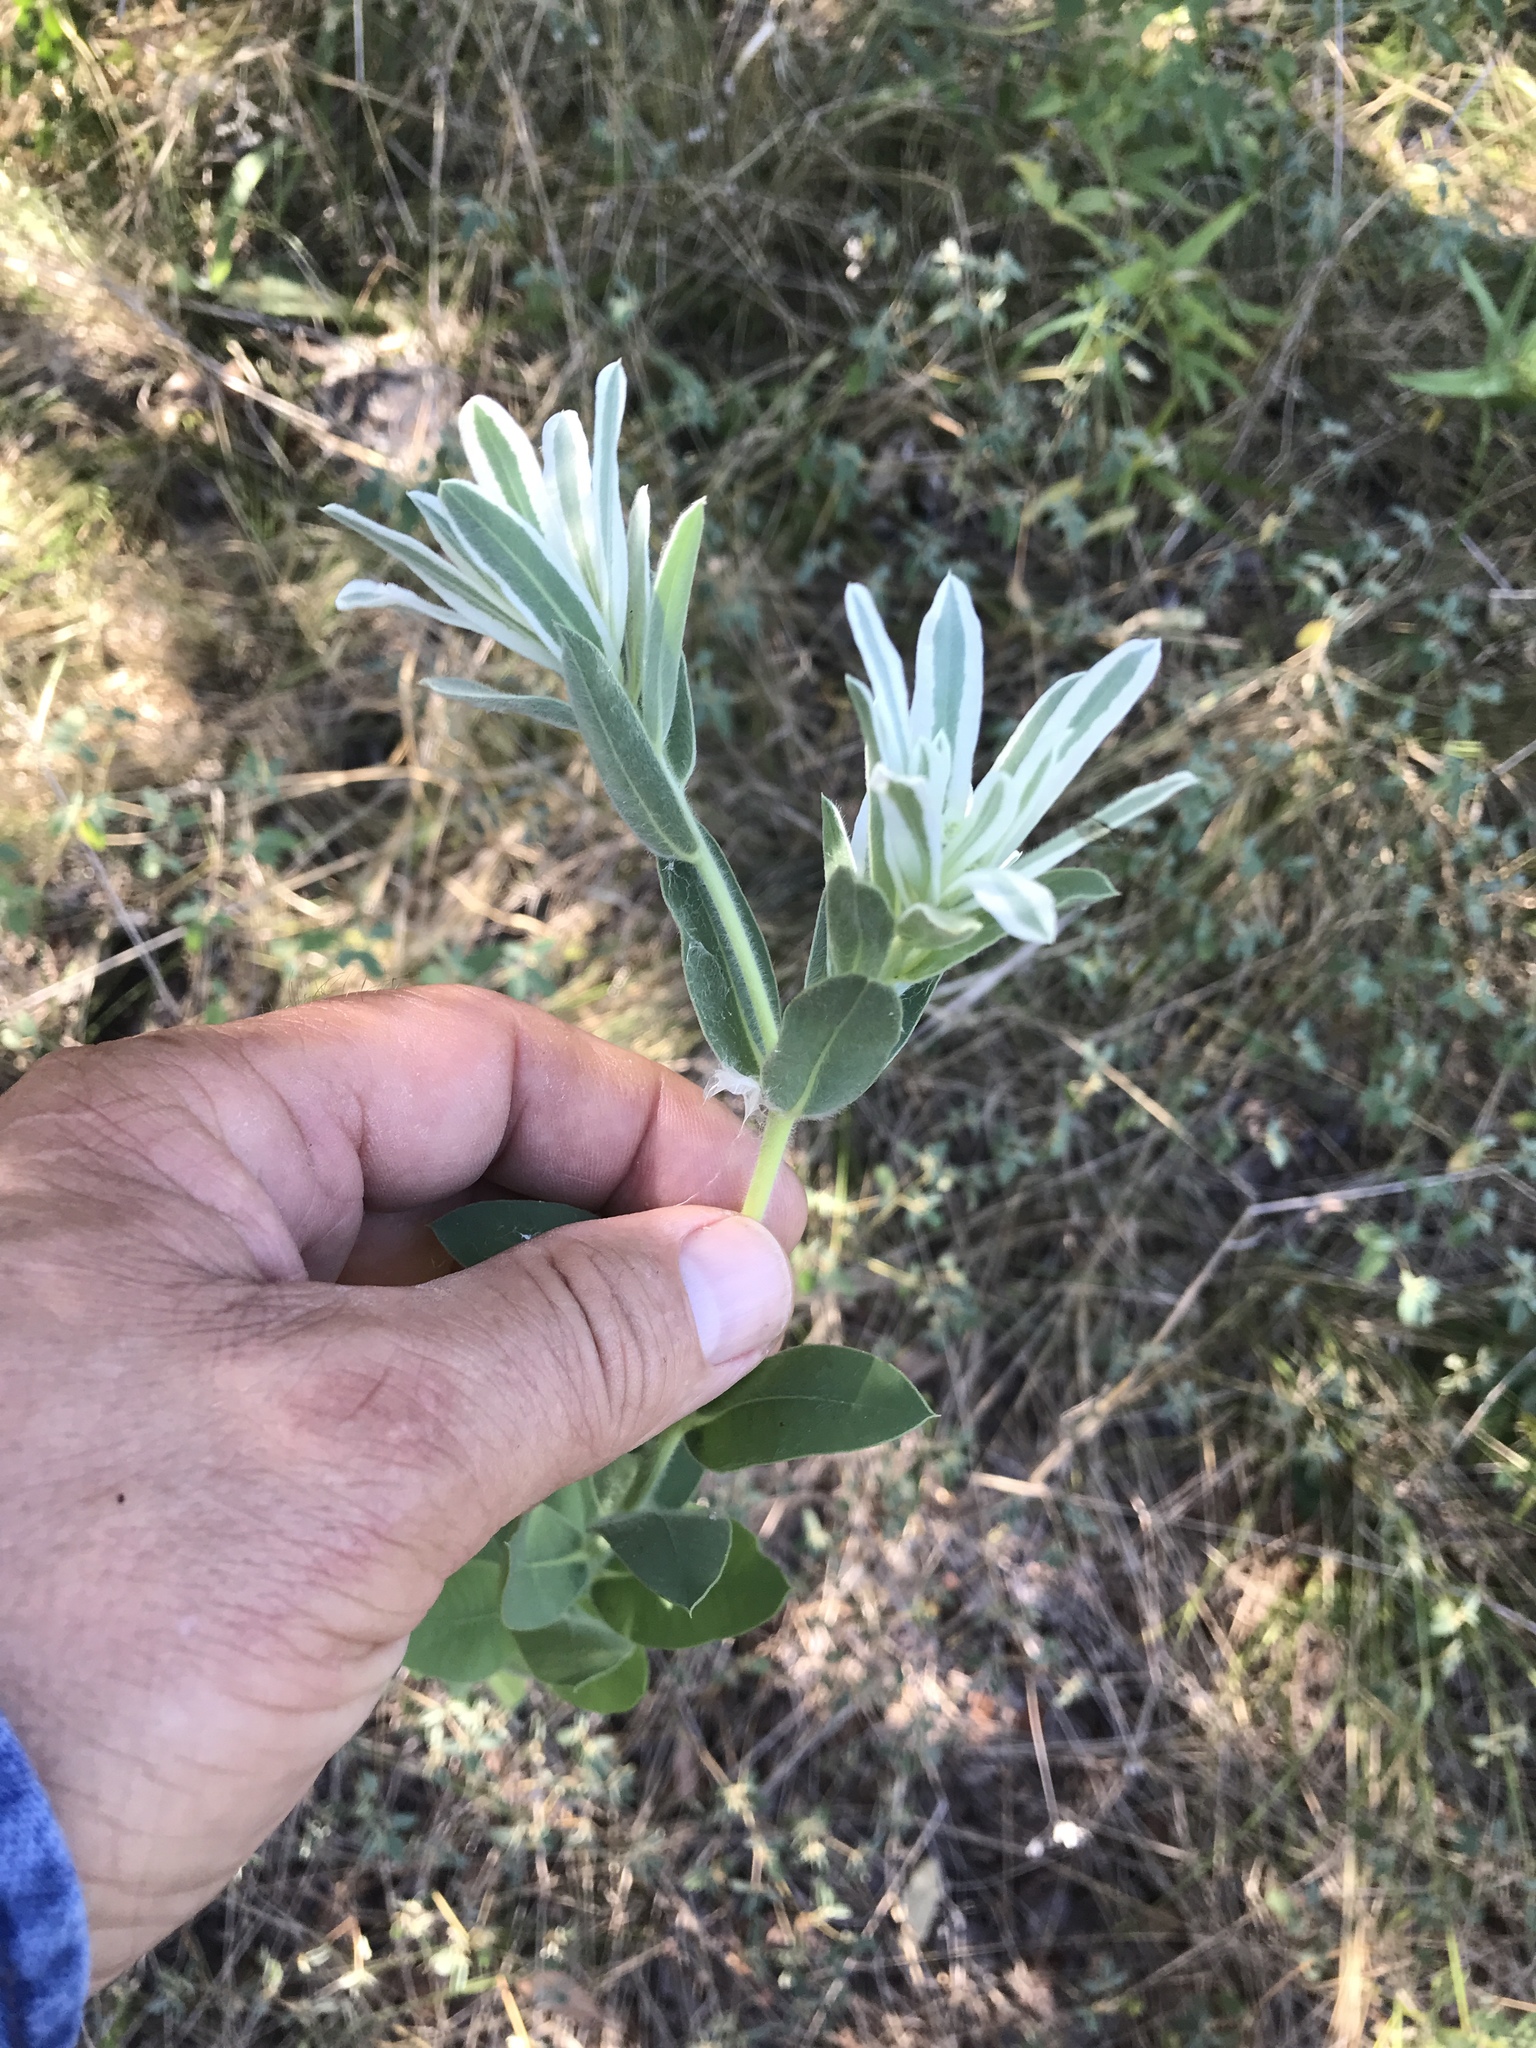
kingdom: Plantae
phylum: Tracheophyta
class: Magnoliopsida
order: Malpighiales
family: Euphorbiaceae
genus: Euphorbia
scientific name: Euphorbia bicolor
